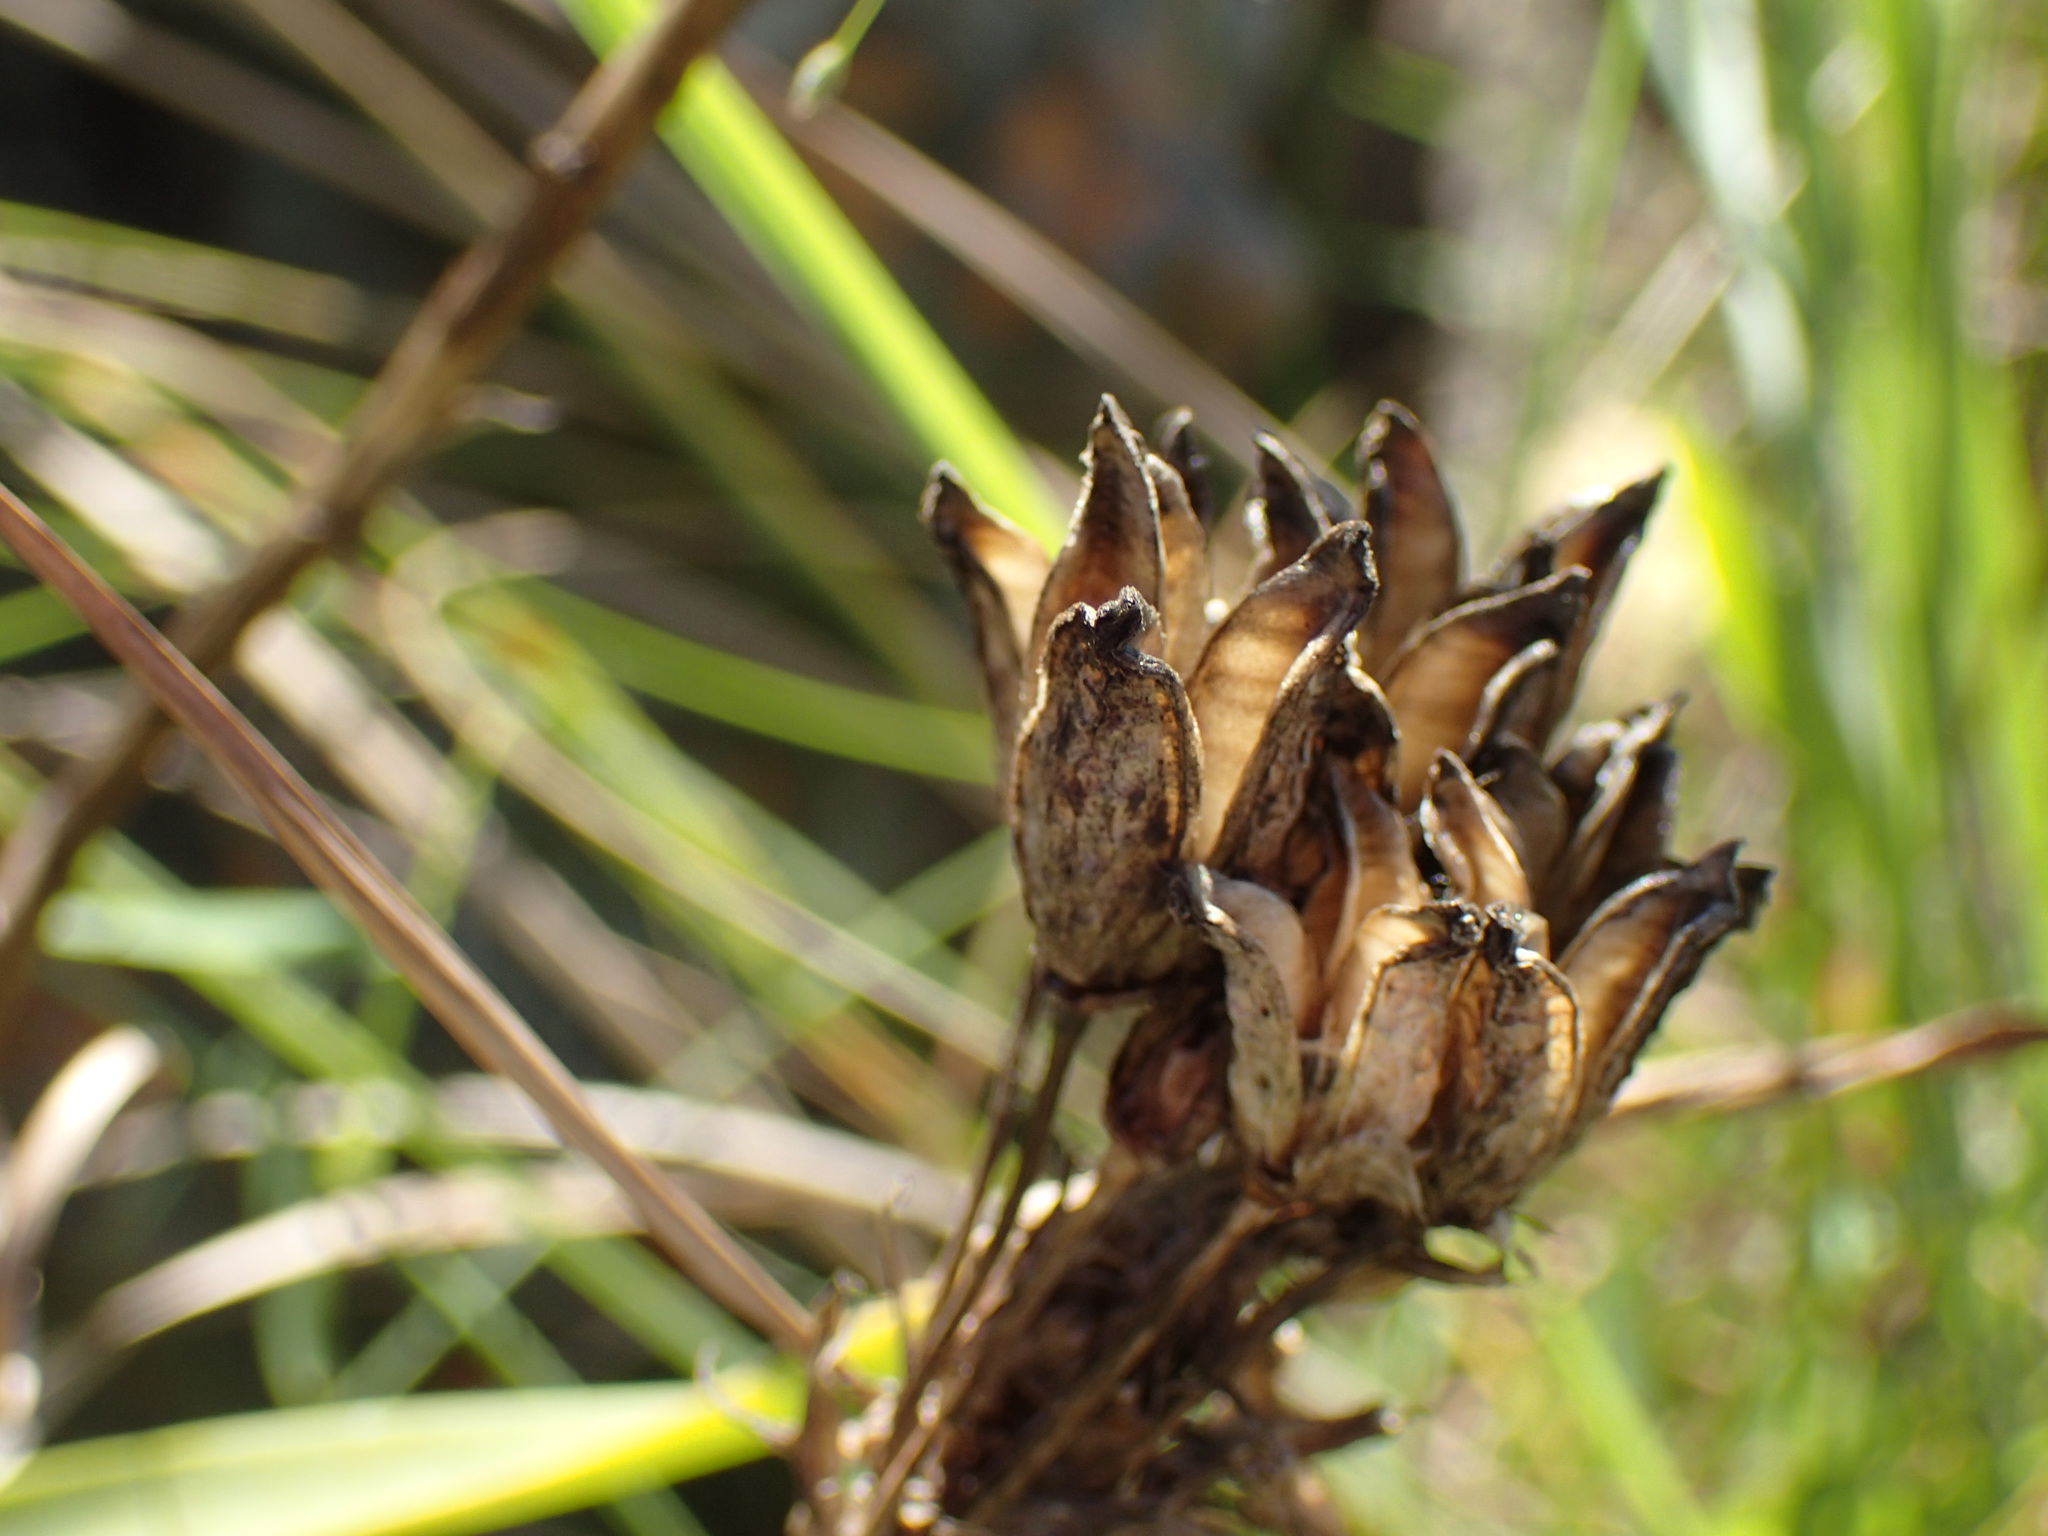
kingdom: Plantae
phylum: Tracheophyta
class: Liliopsida
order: Asparagales
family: Asparagaceae
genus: Albuca
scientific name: Albuca virens
